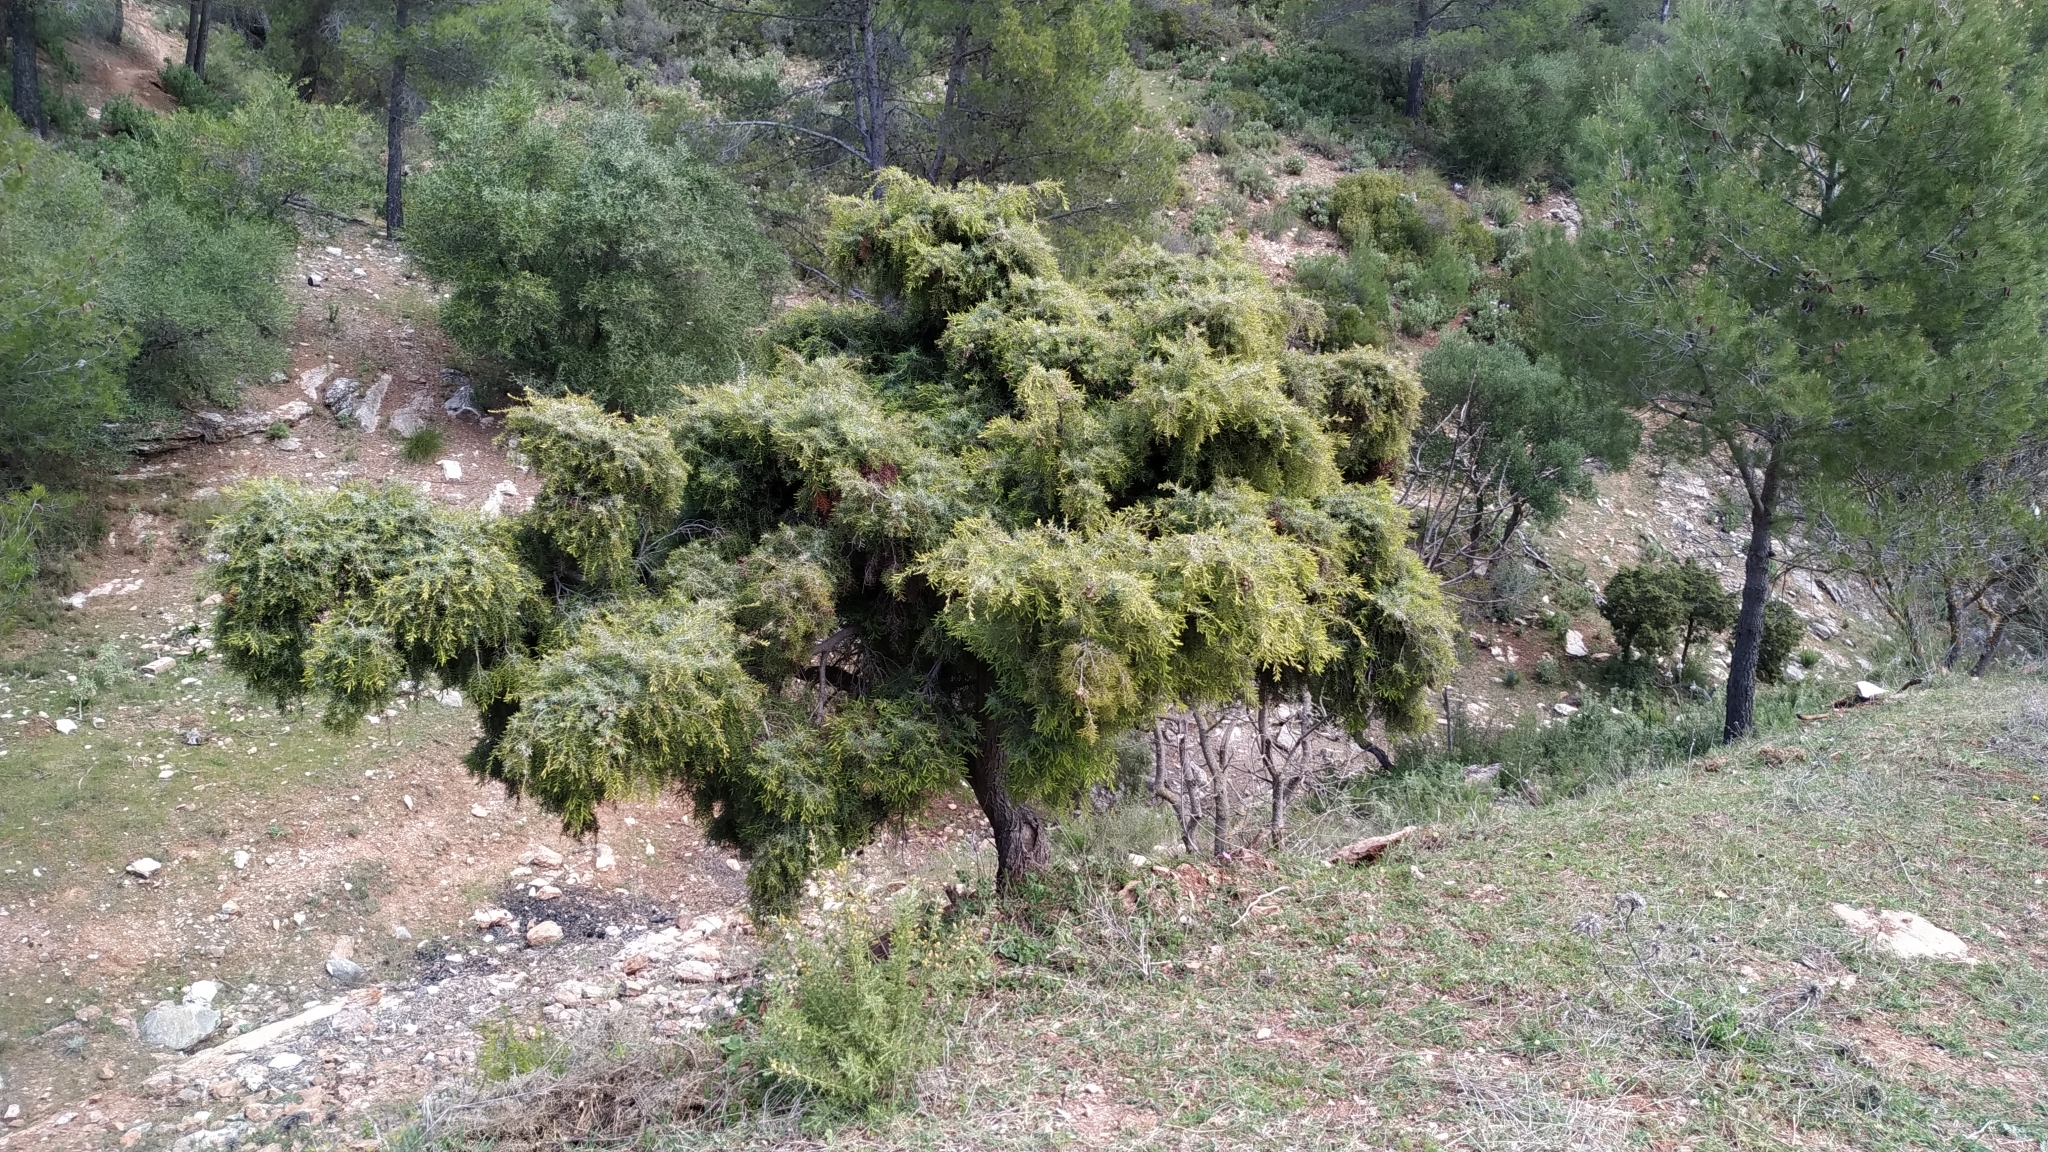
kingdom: Plantae
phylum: Tracheophyta
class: Pinopsida
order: Pinales
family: Cupressaceae
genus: Juniperus
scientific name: Juniperus oxycedrus
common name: Prickly juniper
